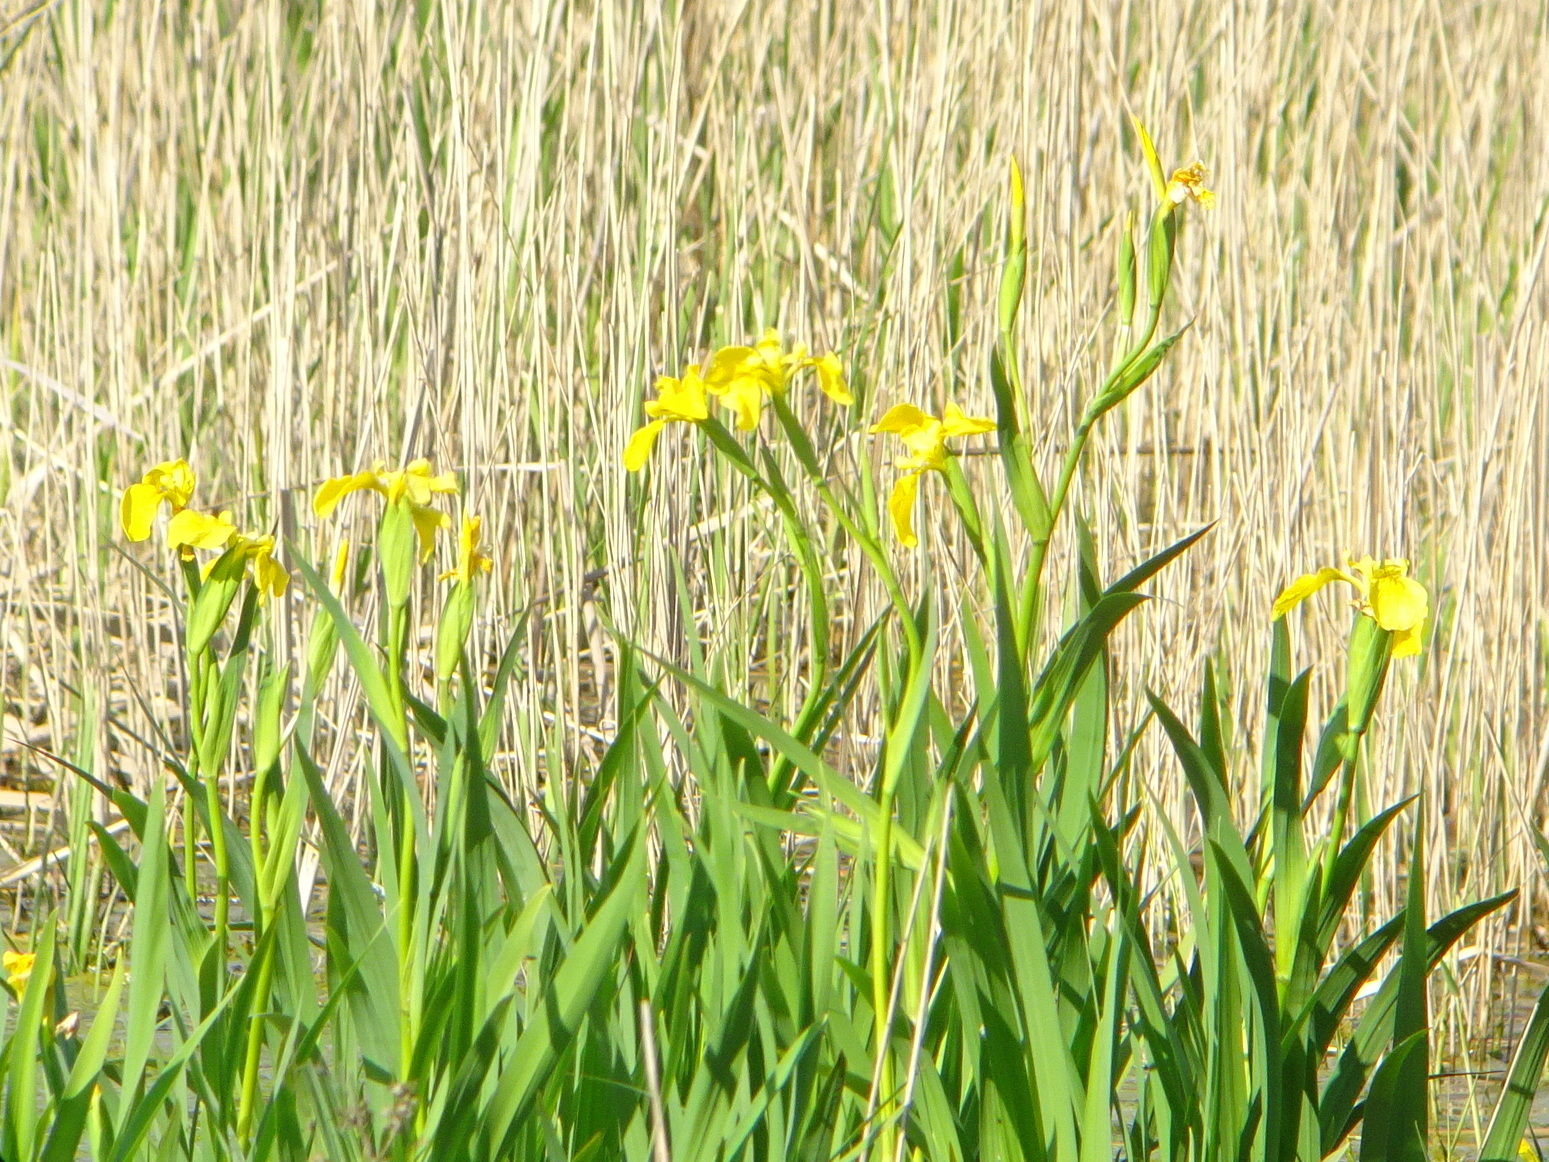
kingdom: Plantae
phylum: Tracheophyta
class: Liliopsida
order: Asparagales
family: Iridaceae
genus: Iris
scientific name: Iris pseudacorus
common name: Yellow flag
